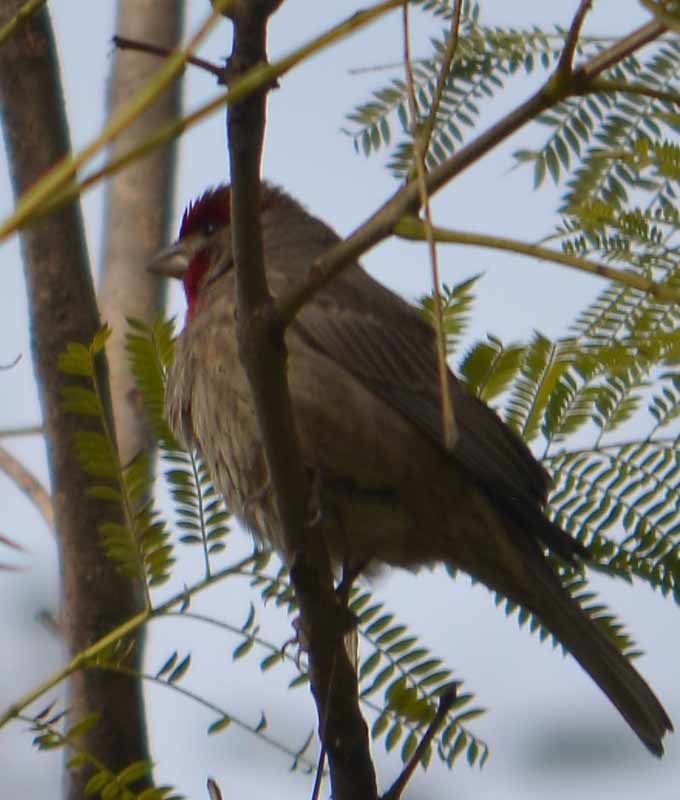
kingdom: Animalia
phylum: Chordata
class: Aves
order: Passeriformes
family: Fringillidae
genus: Haemorhous
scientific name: Haemorhous mexicanus
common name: House finch
